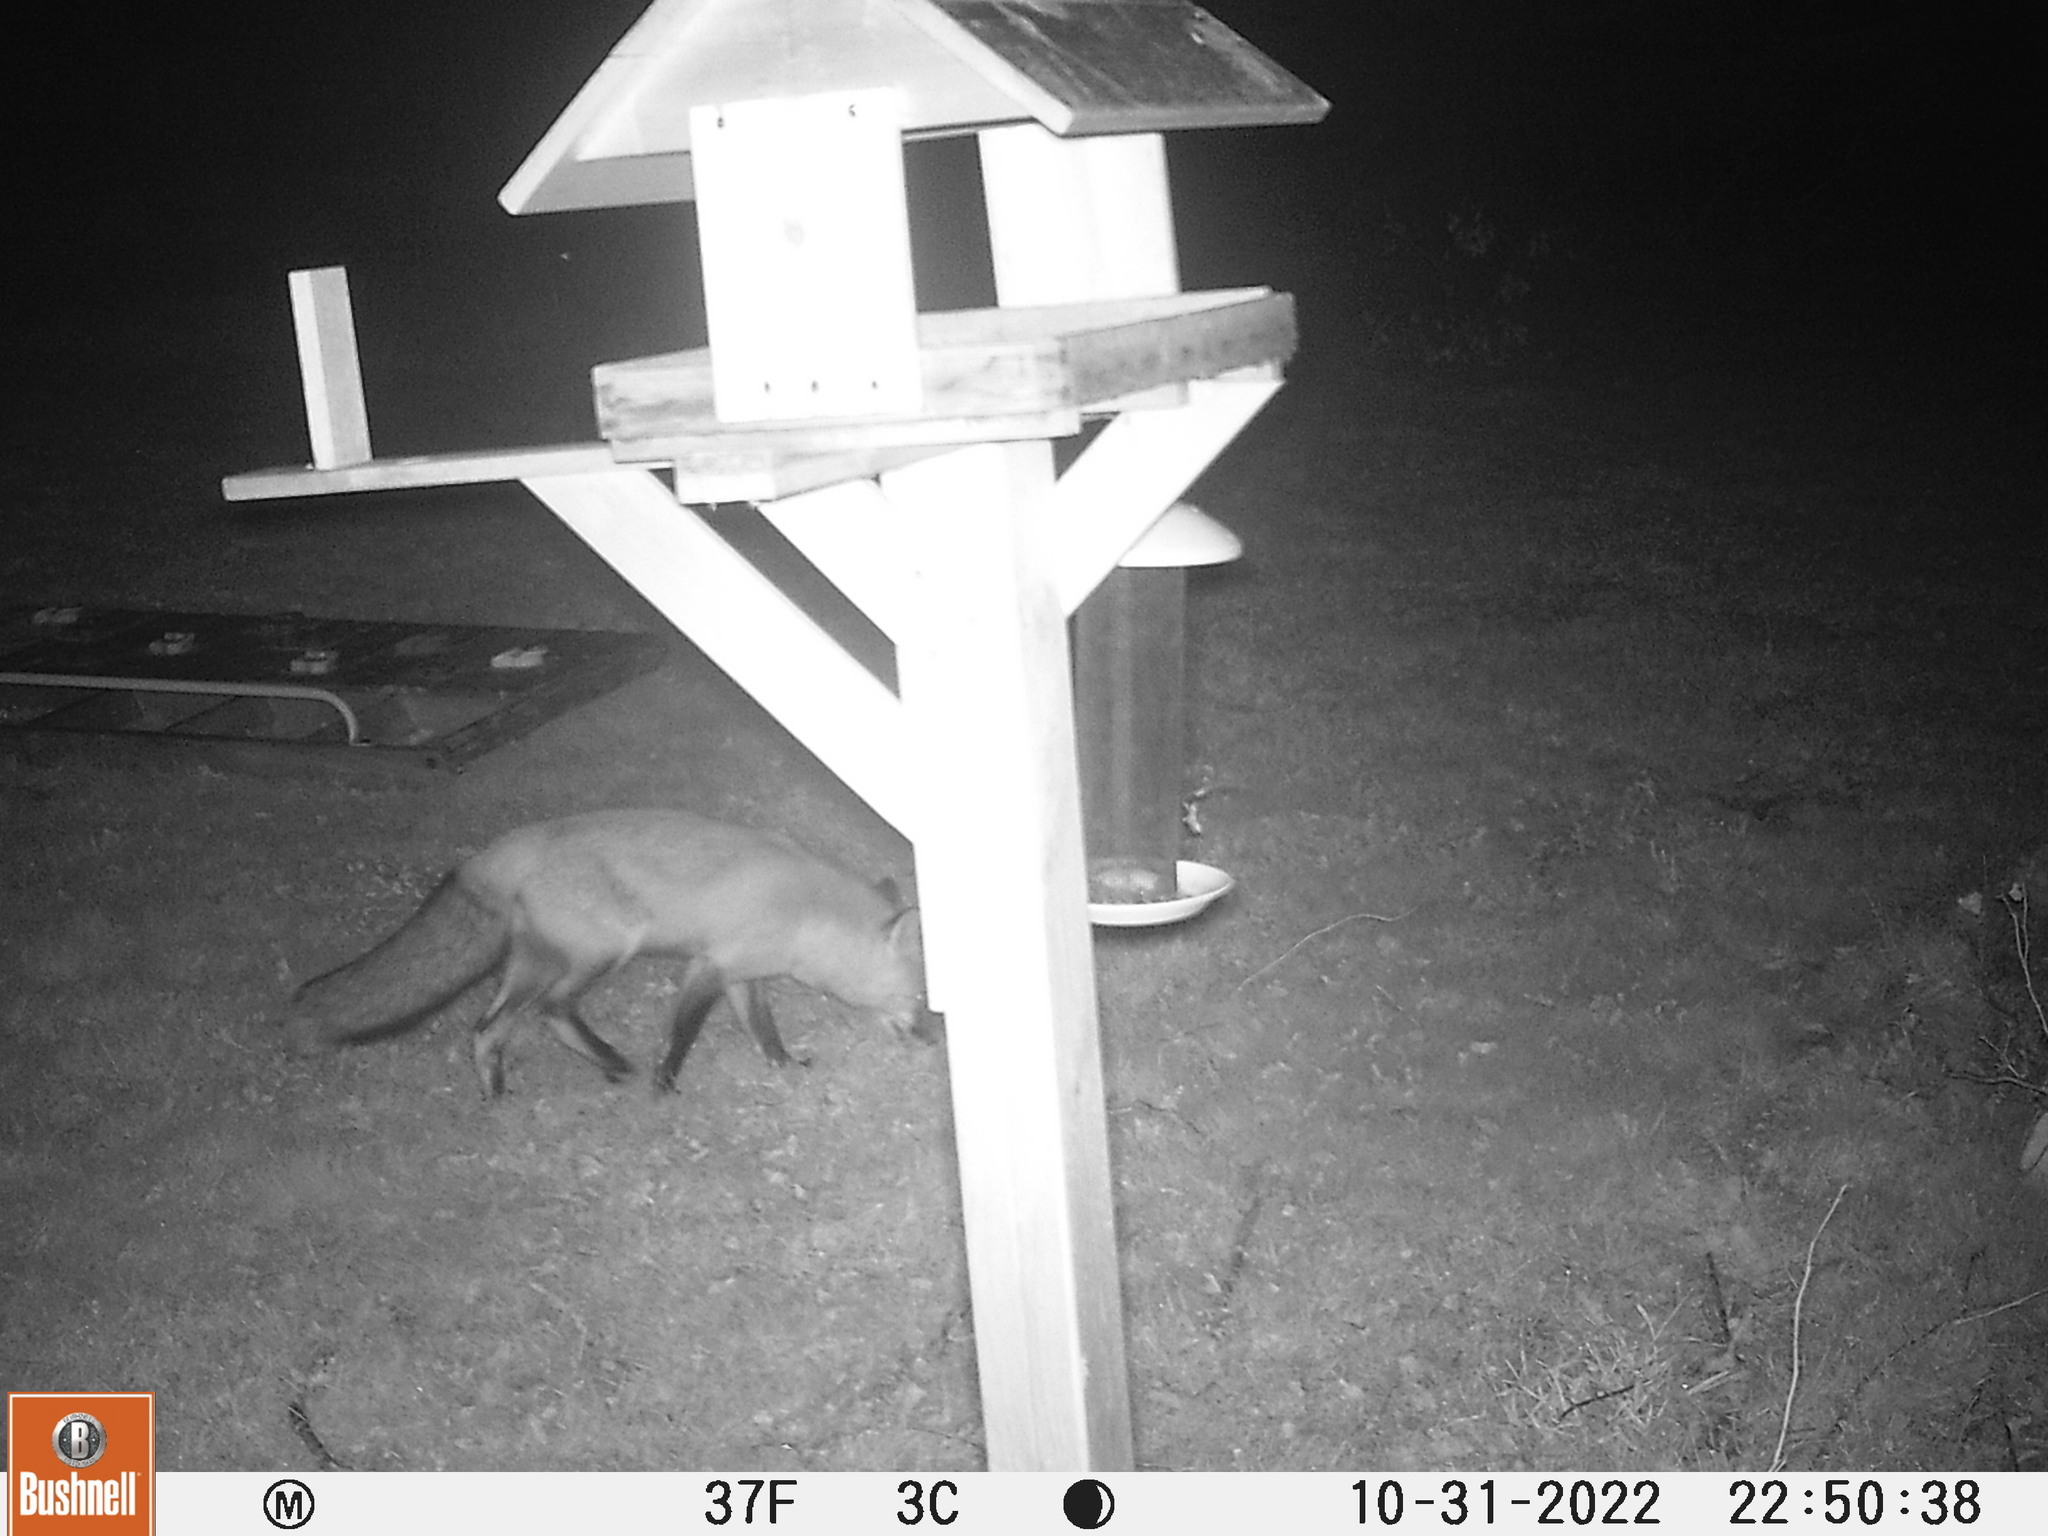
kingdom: Animalia
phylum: Chordata
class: Mammalia
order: Carnivora
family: Canidae
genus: Vulpes
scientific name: Vulpes vulpes
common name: Red fox
